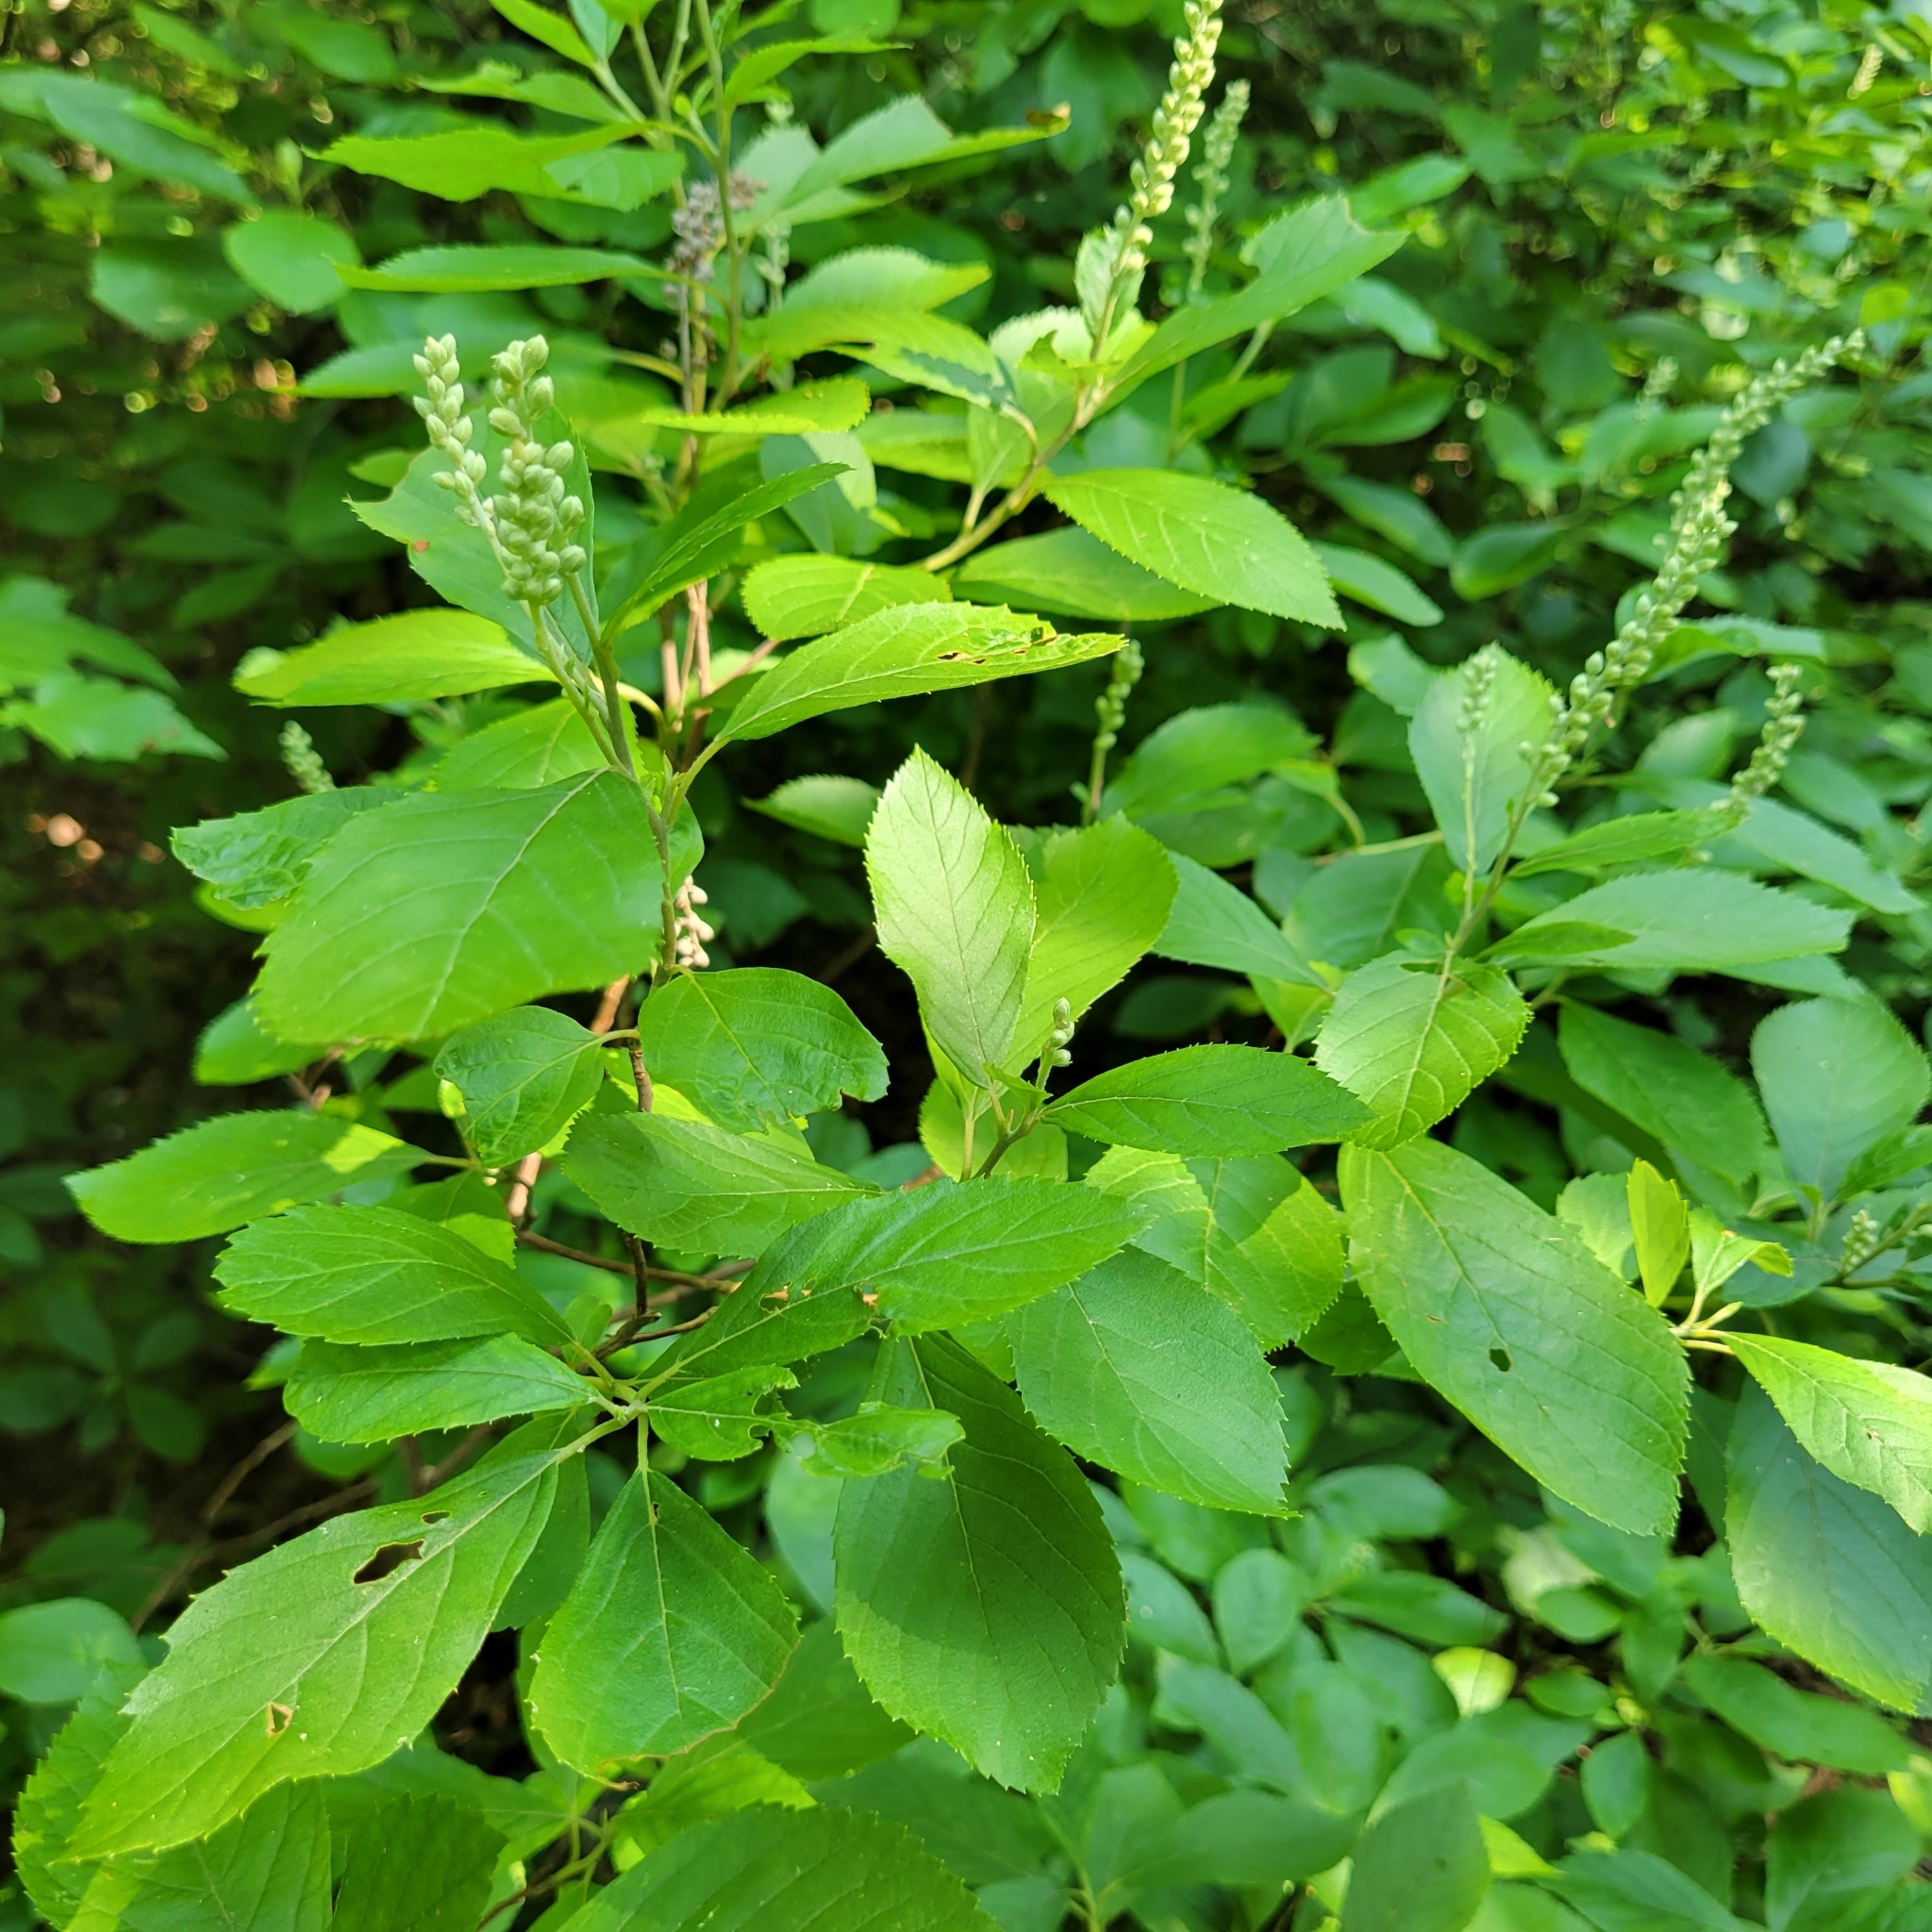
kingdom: Plantae
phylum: Tracheophyta
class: Magnoliopsida
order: Ericales
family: Clethraceae
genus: Clethra
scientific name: Clethra alnifolia
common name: Sweet pepperbush
